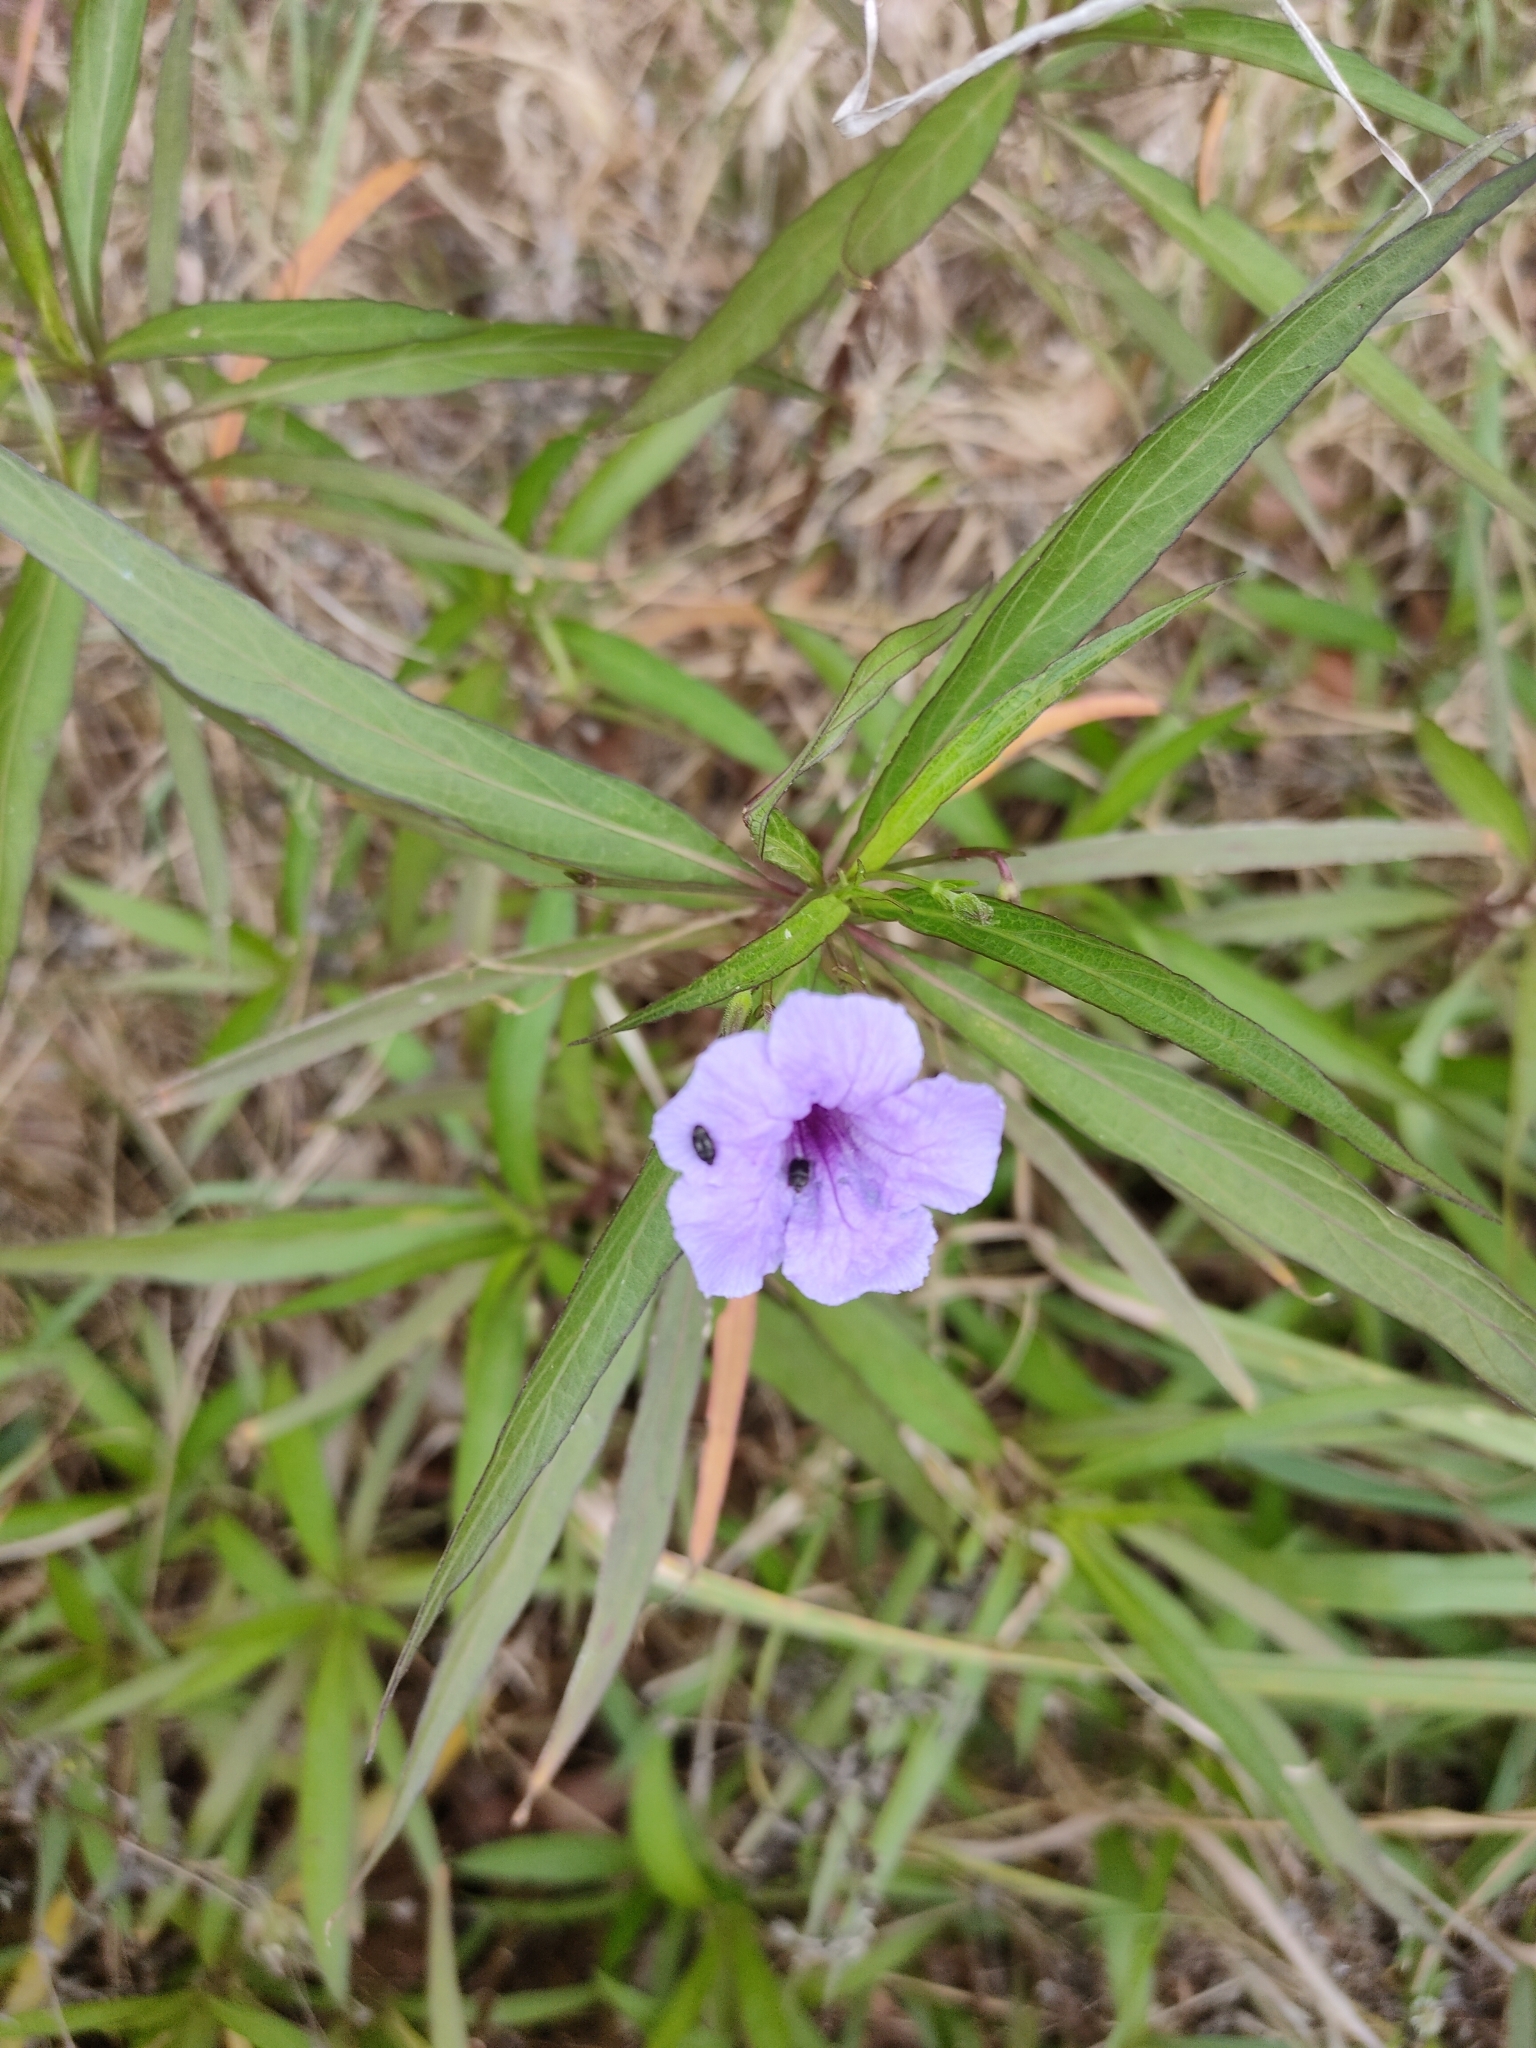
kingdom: Plantae
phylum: Tracheophyta
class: Magnoliopsida
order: Lamiales
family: Acanthaceae
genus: Ruellia
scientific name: Ruellia simplex
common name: Softseed wild petunia
